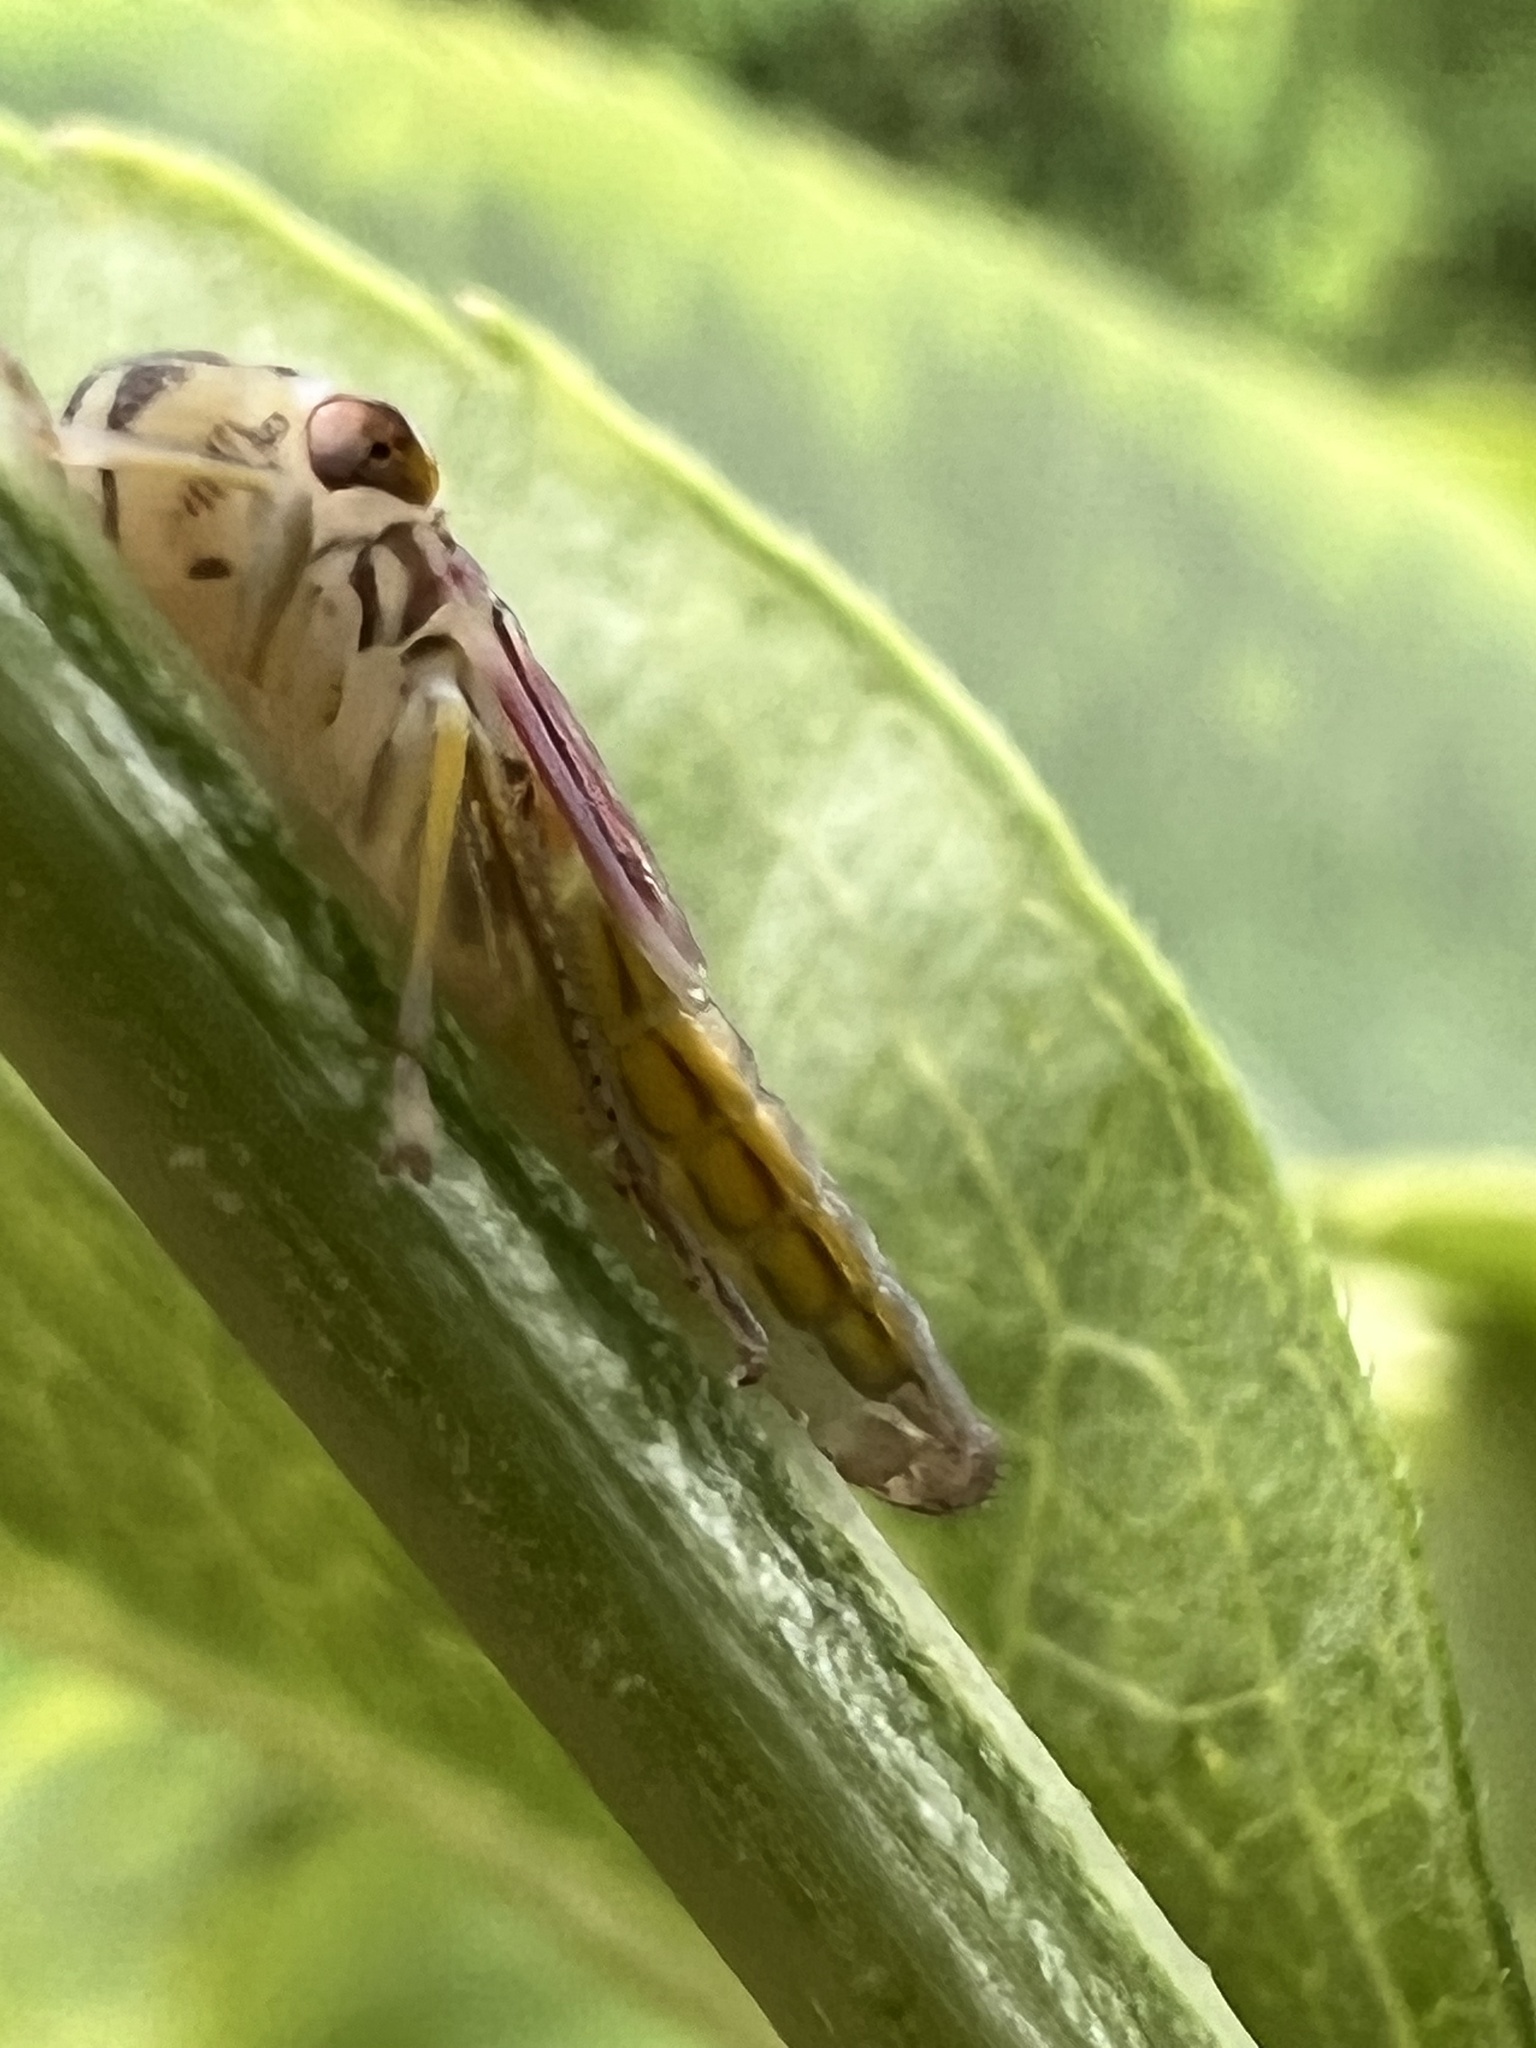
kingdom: Animalia
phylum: Arthropoda
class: Insecta
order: Hemiptera
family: Cicadellidae
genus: Oncometopia
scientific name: Oncometopia orbona
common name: Broad-headed sharpshooter
